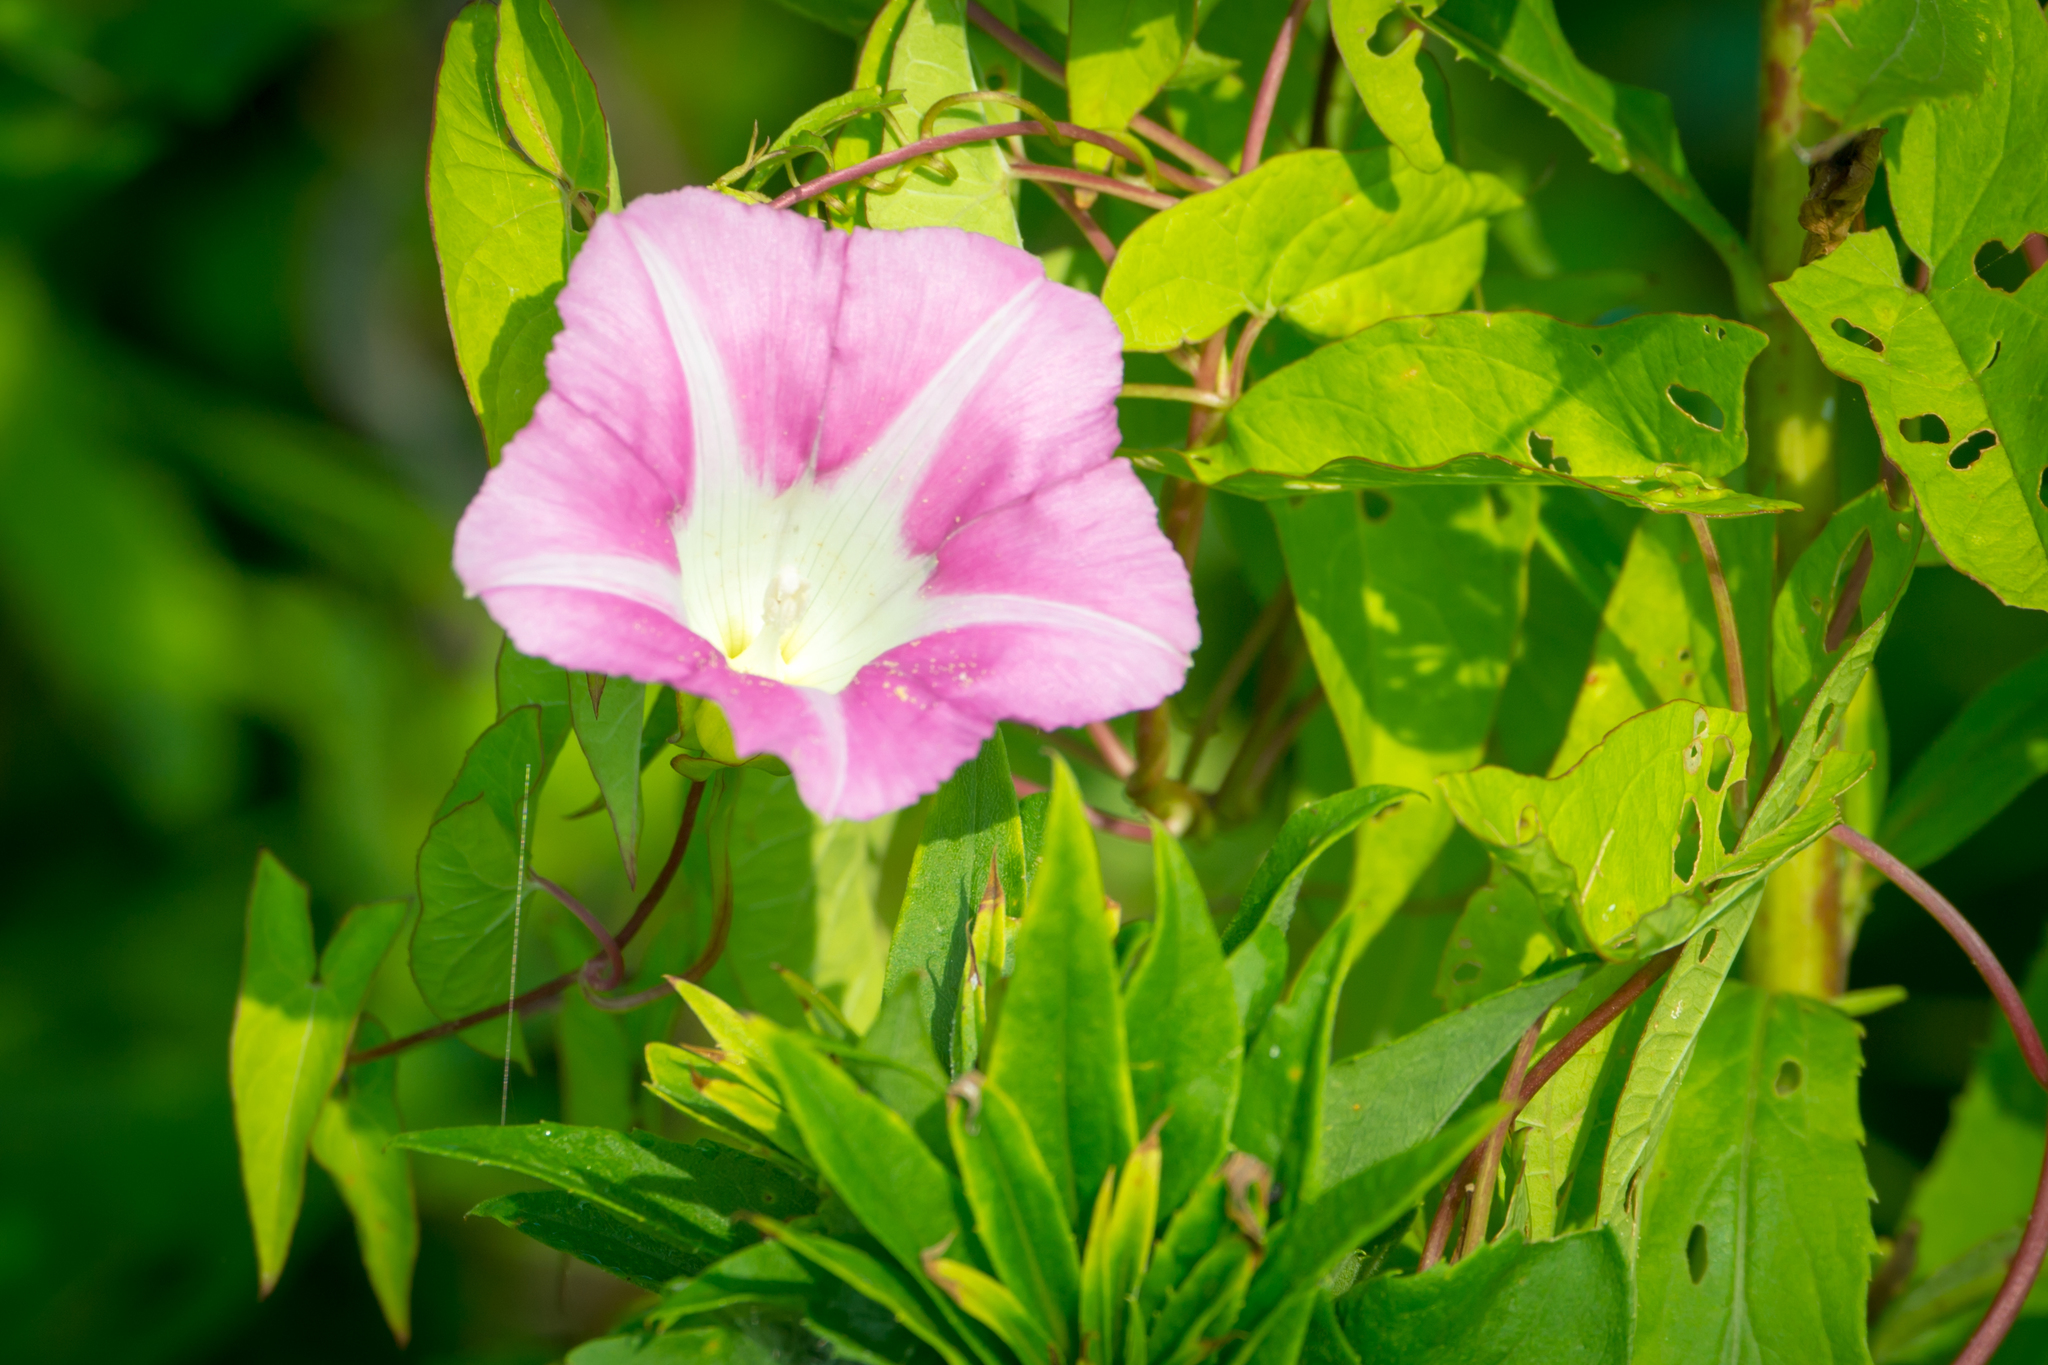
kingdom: Plantae
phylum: Tracheophyta
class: Magnoliopsida
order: Solanales
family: Convolvulaceae
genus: Calystegia
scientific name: Calystegia sepium
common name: Hedge bindweed
